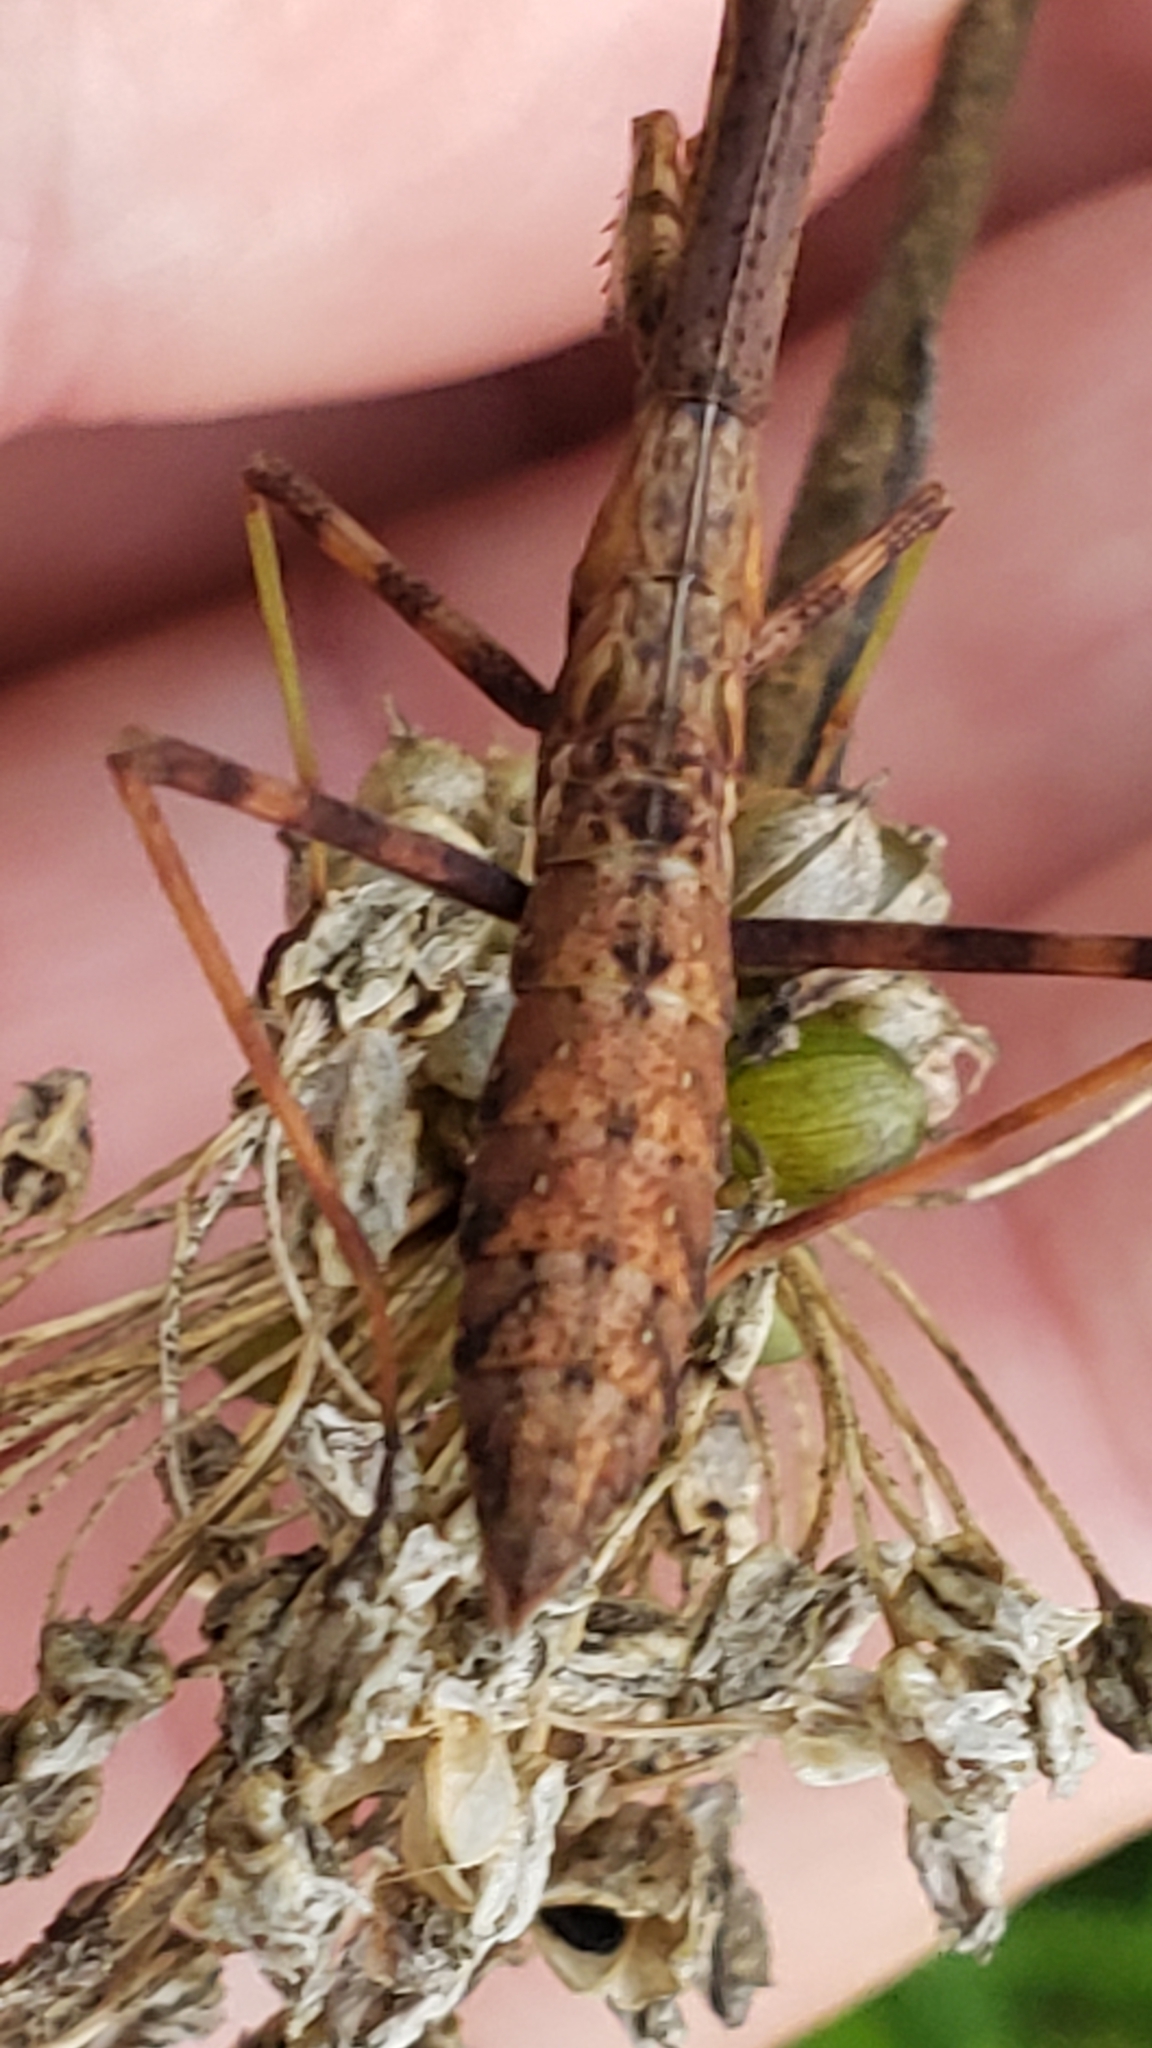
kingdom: Animalia
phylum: Arthropoda
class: Insecta
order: Mantodea
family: Mantidae
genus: Stagmomantis
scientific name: Stagmomantis carolina
